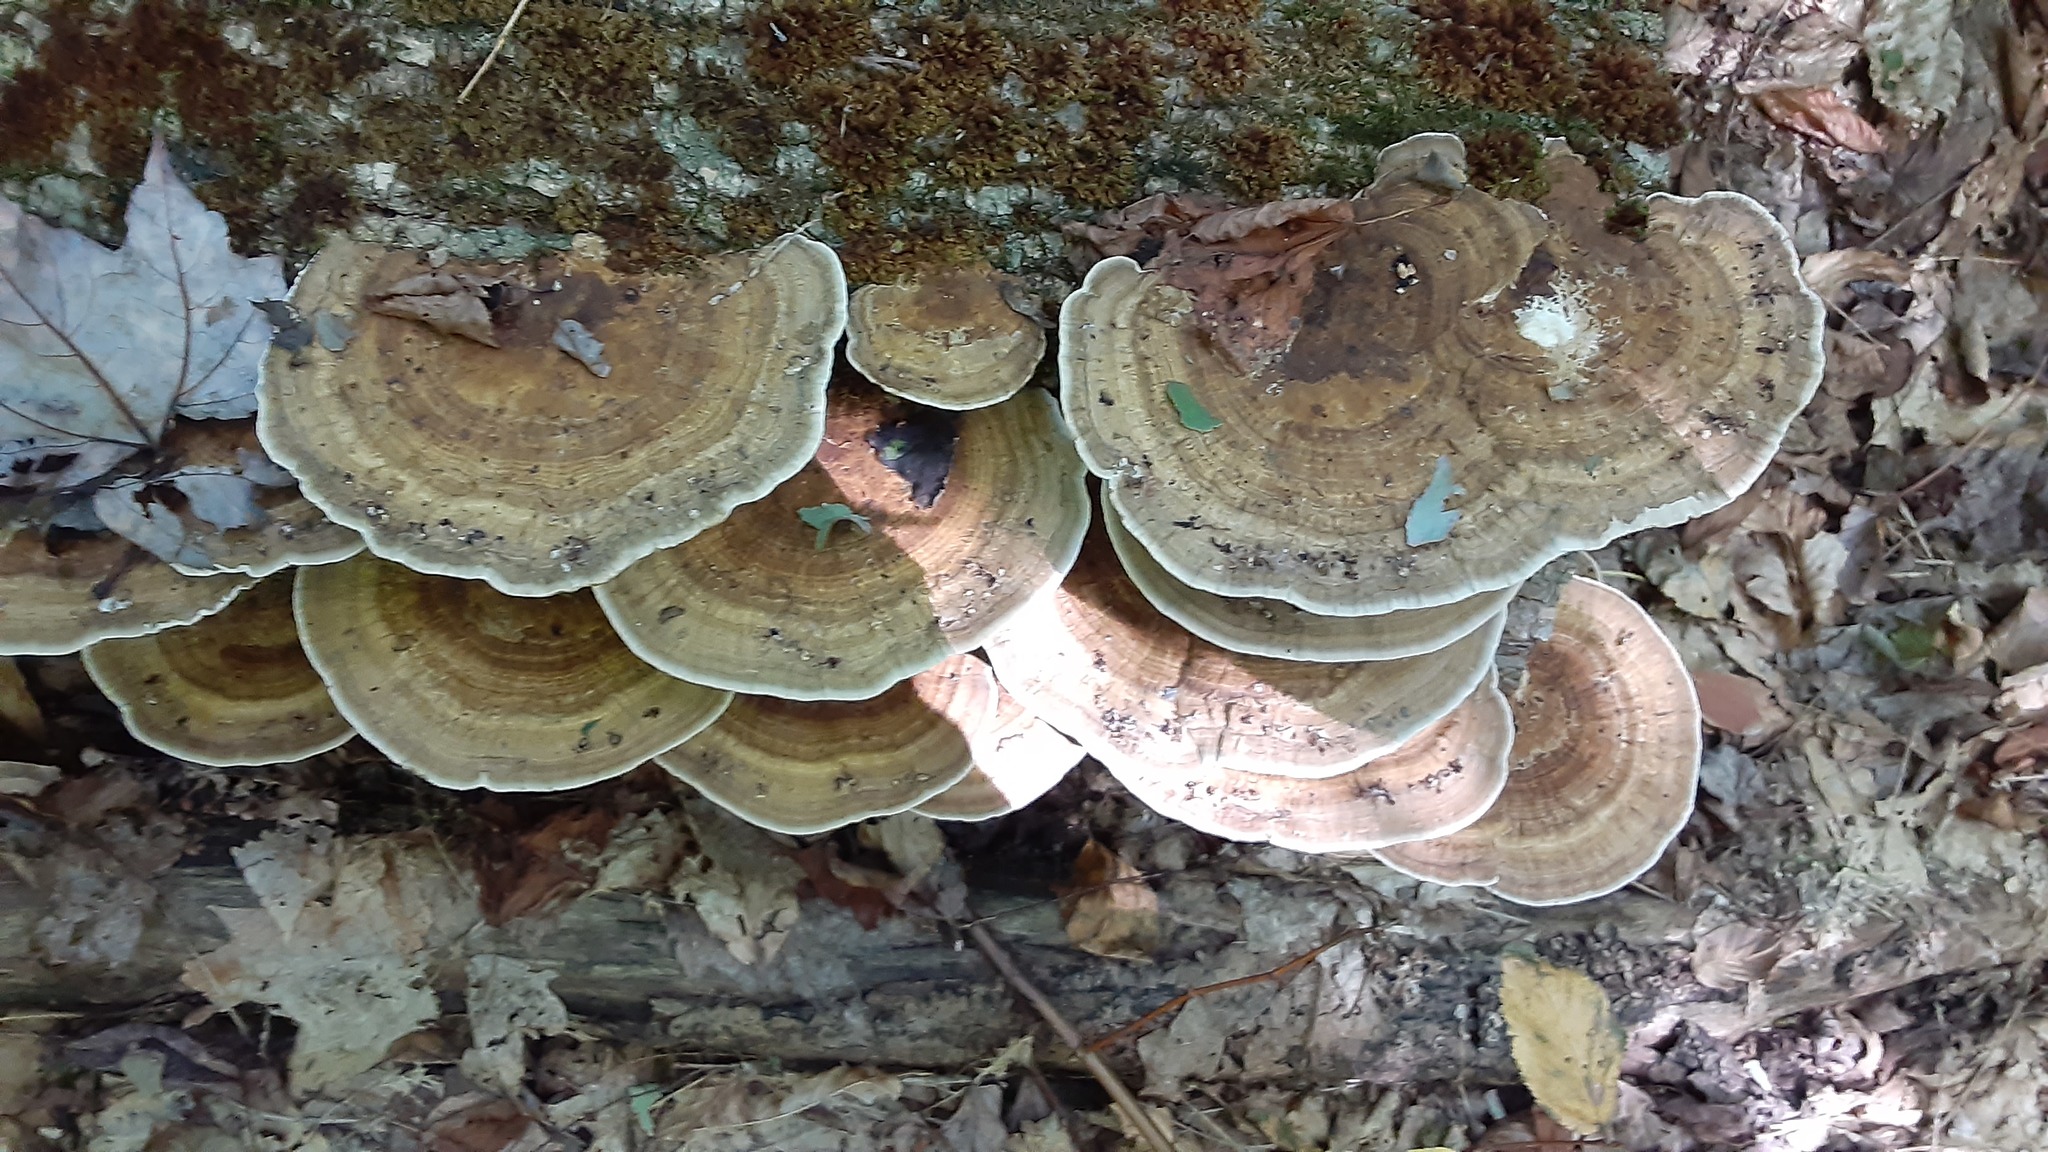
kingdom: Fungi
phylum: Basidiomycota
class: Agaricomycetes
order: Polyporales
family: Polyporaceae
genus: Daedaleopsis
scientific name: Daedaleopsis confragosa
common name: Blushing bracket
